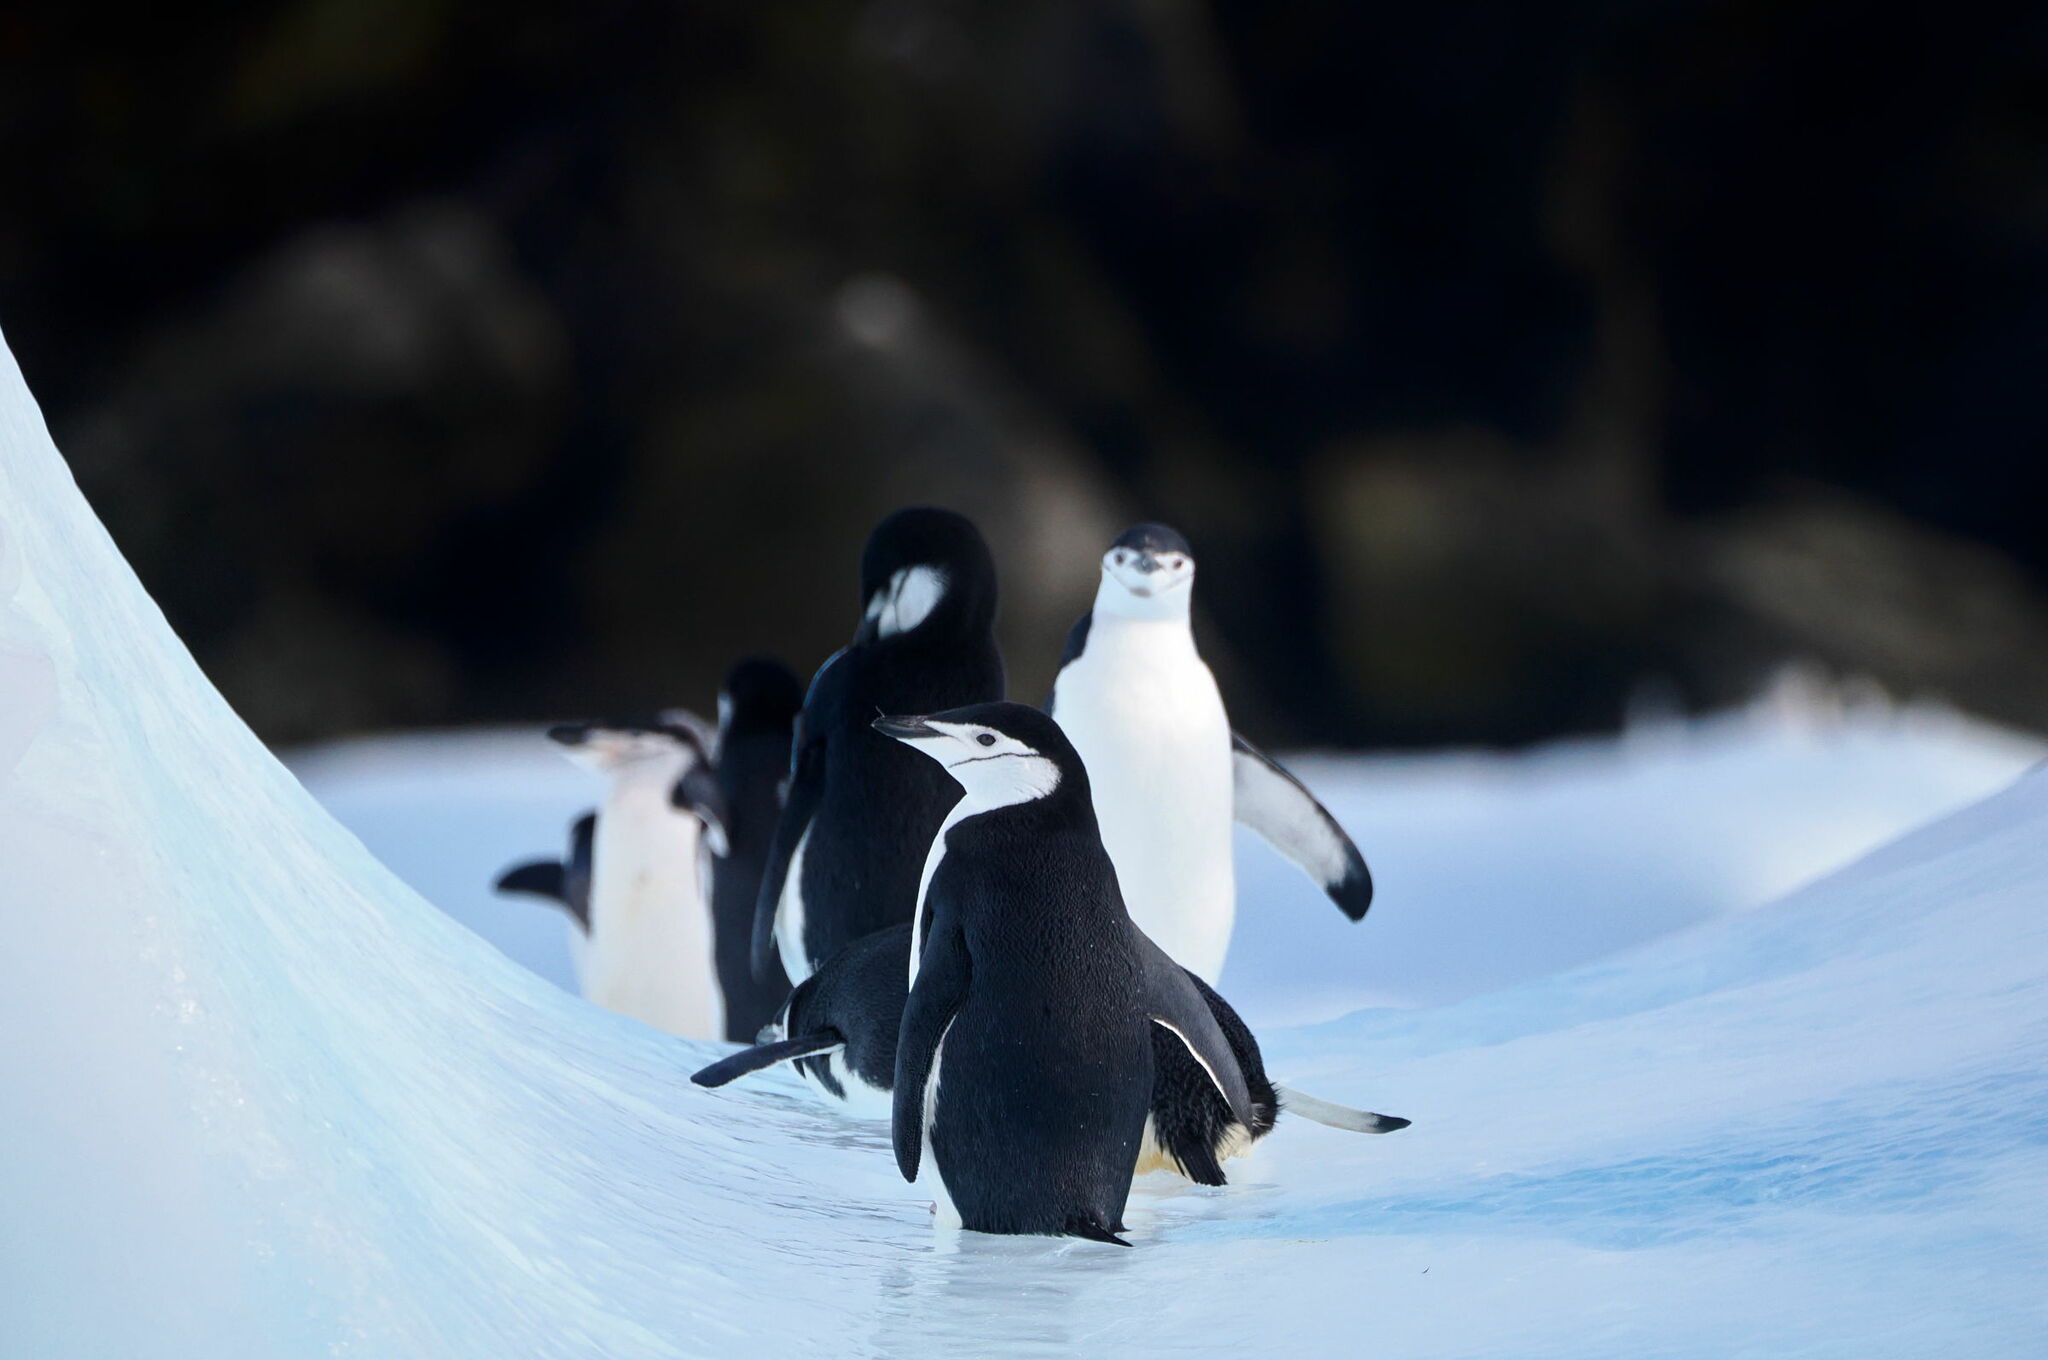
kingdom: Animalia
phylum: Chordata
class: Aves
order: Sphenisciformes
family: Spheniscidae
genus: Pygoscelis
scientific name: Pygoscelis antarcticus
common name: Chinstrap penguin
